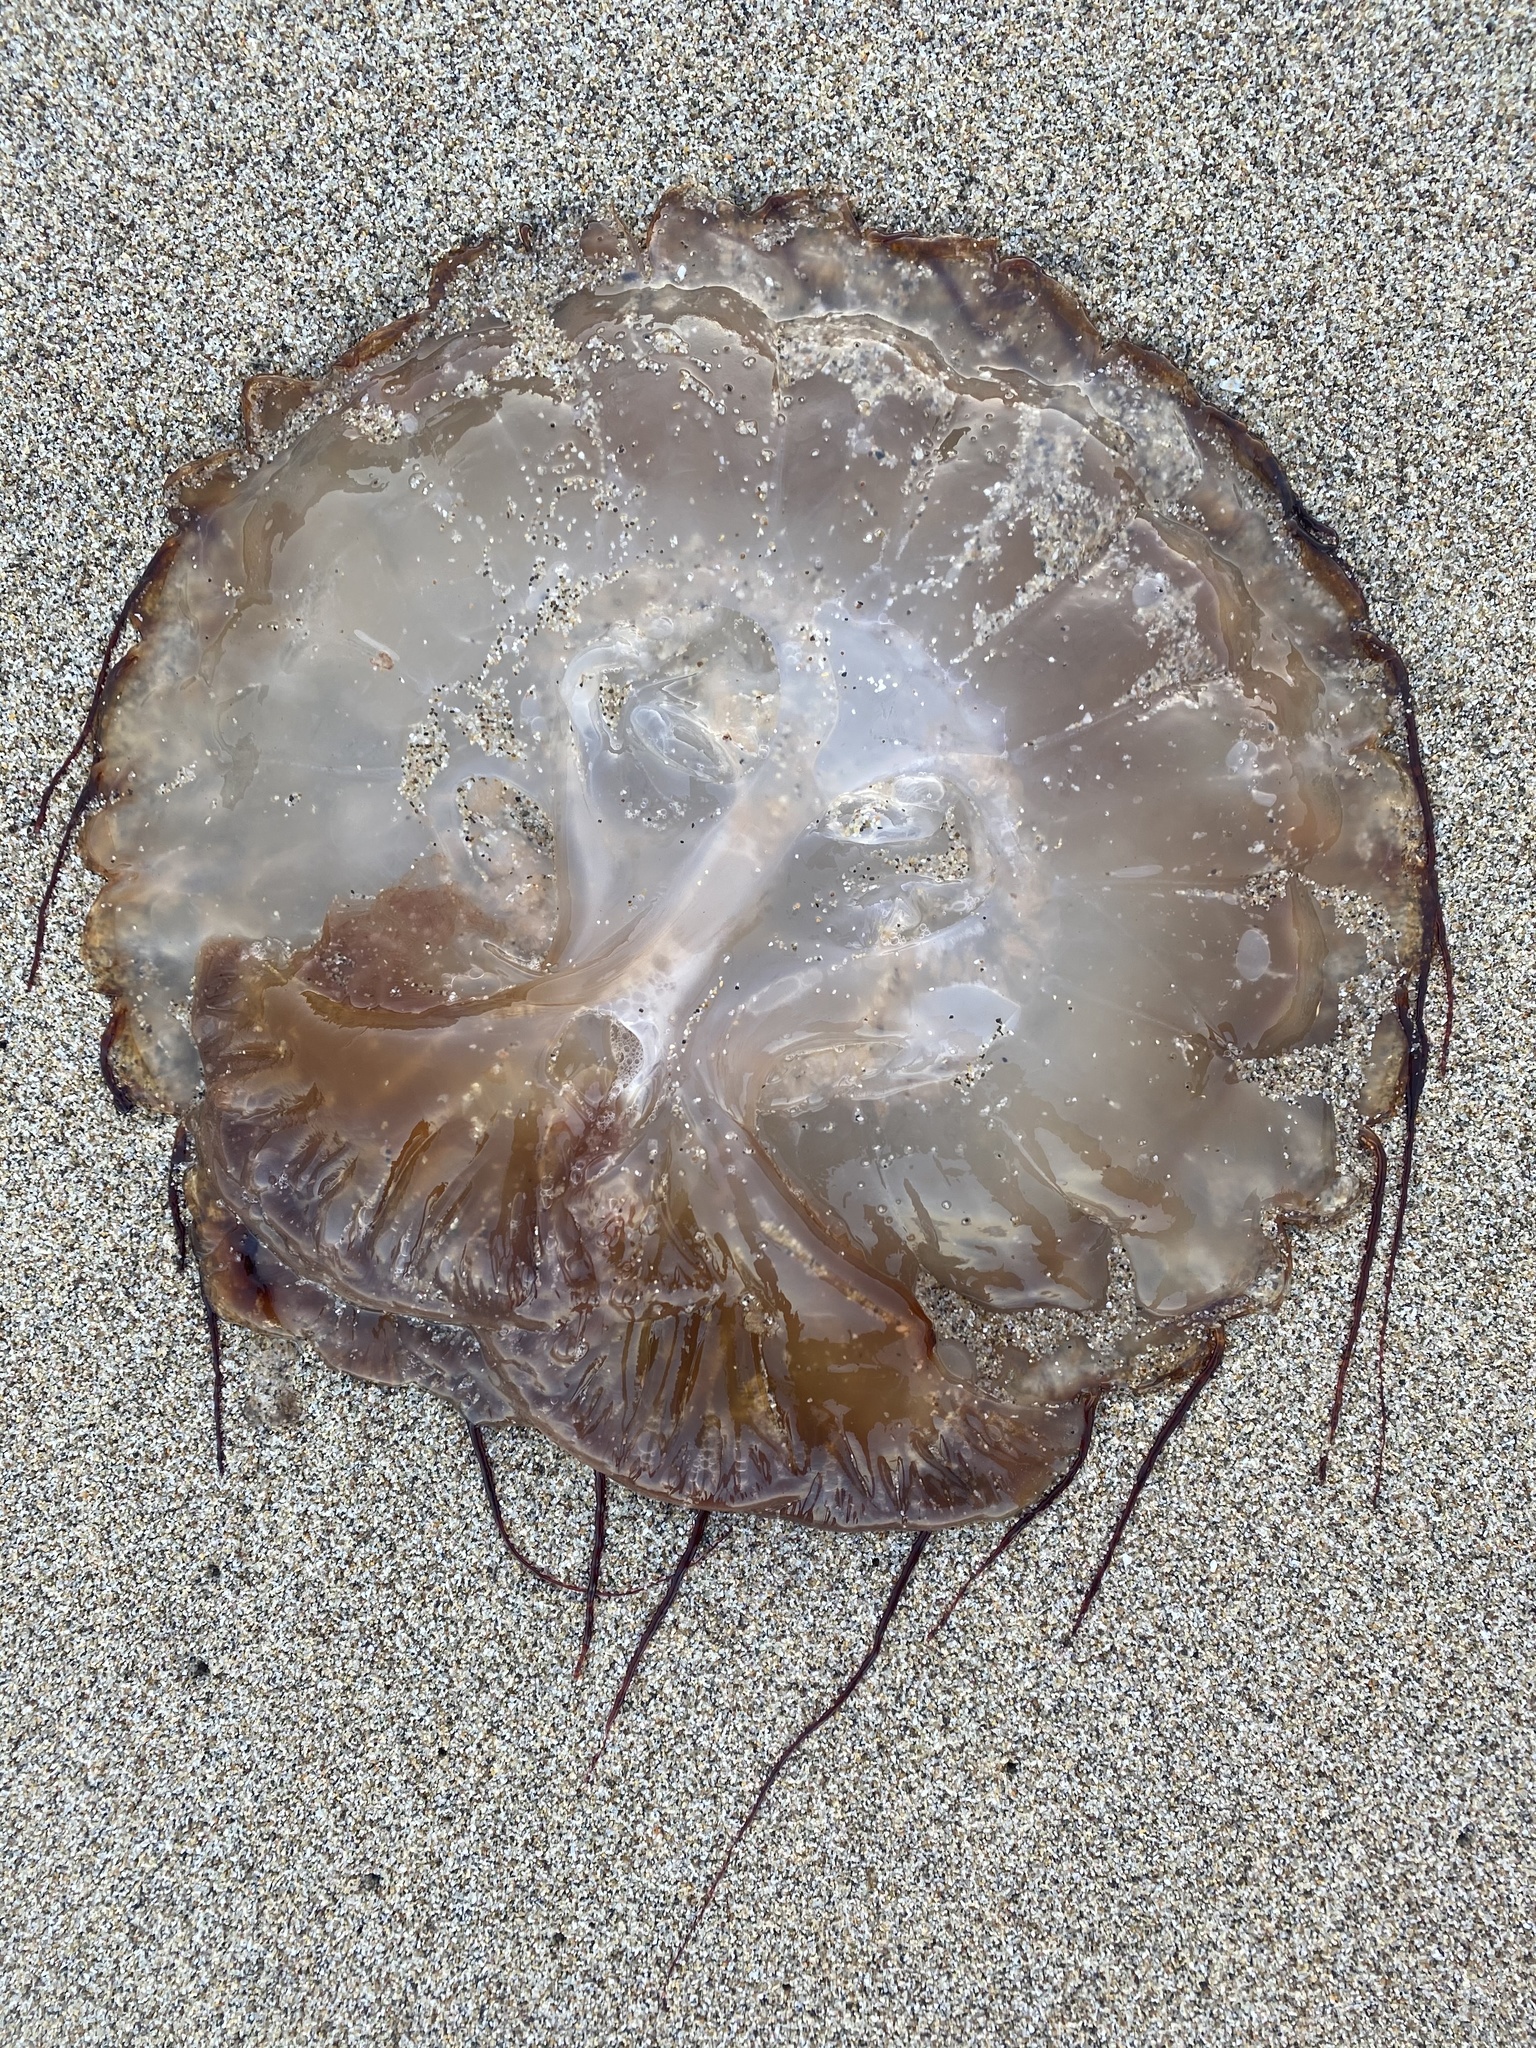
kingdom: Animalia
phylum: Cnidaria
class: Scyphozoa
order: Semaeostomeae
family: Pelagiidae
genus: Chrysaora
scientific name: Chrysaora fuscescens
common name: Sea nettle
